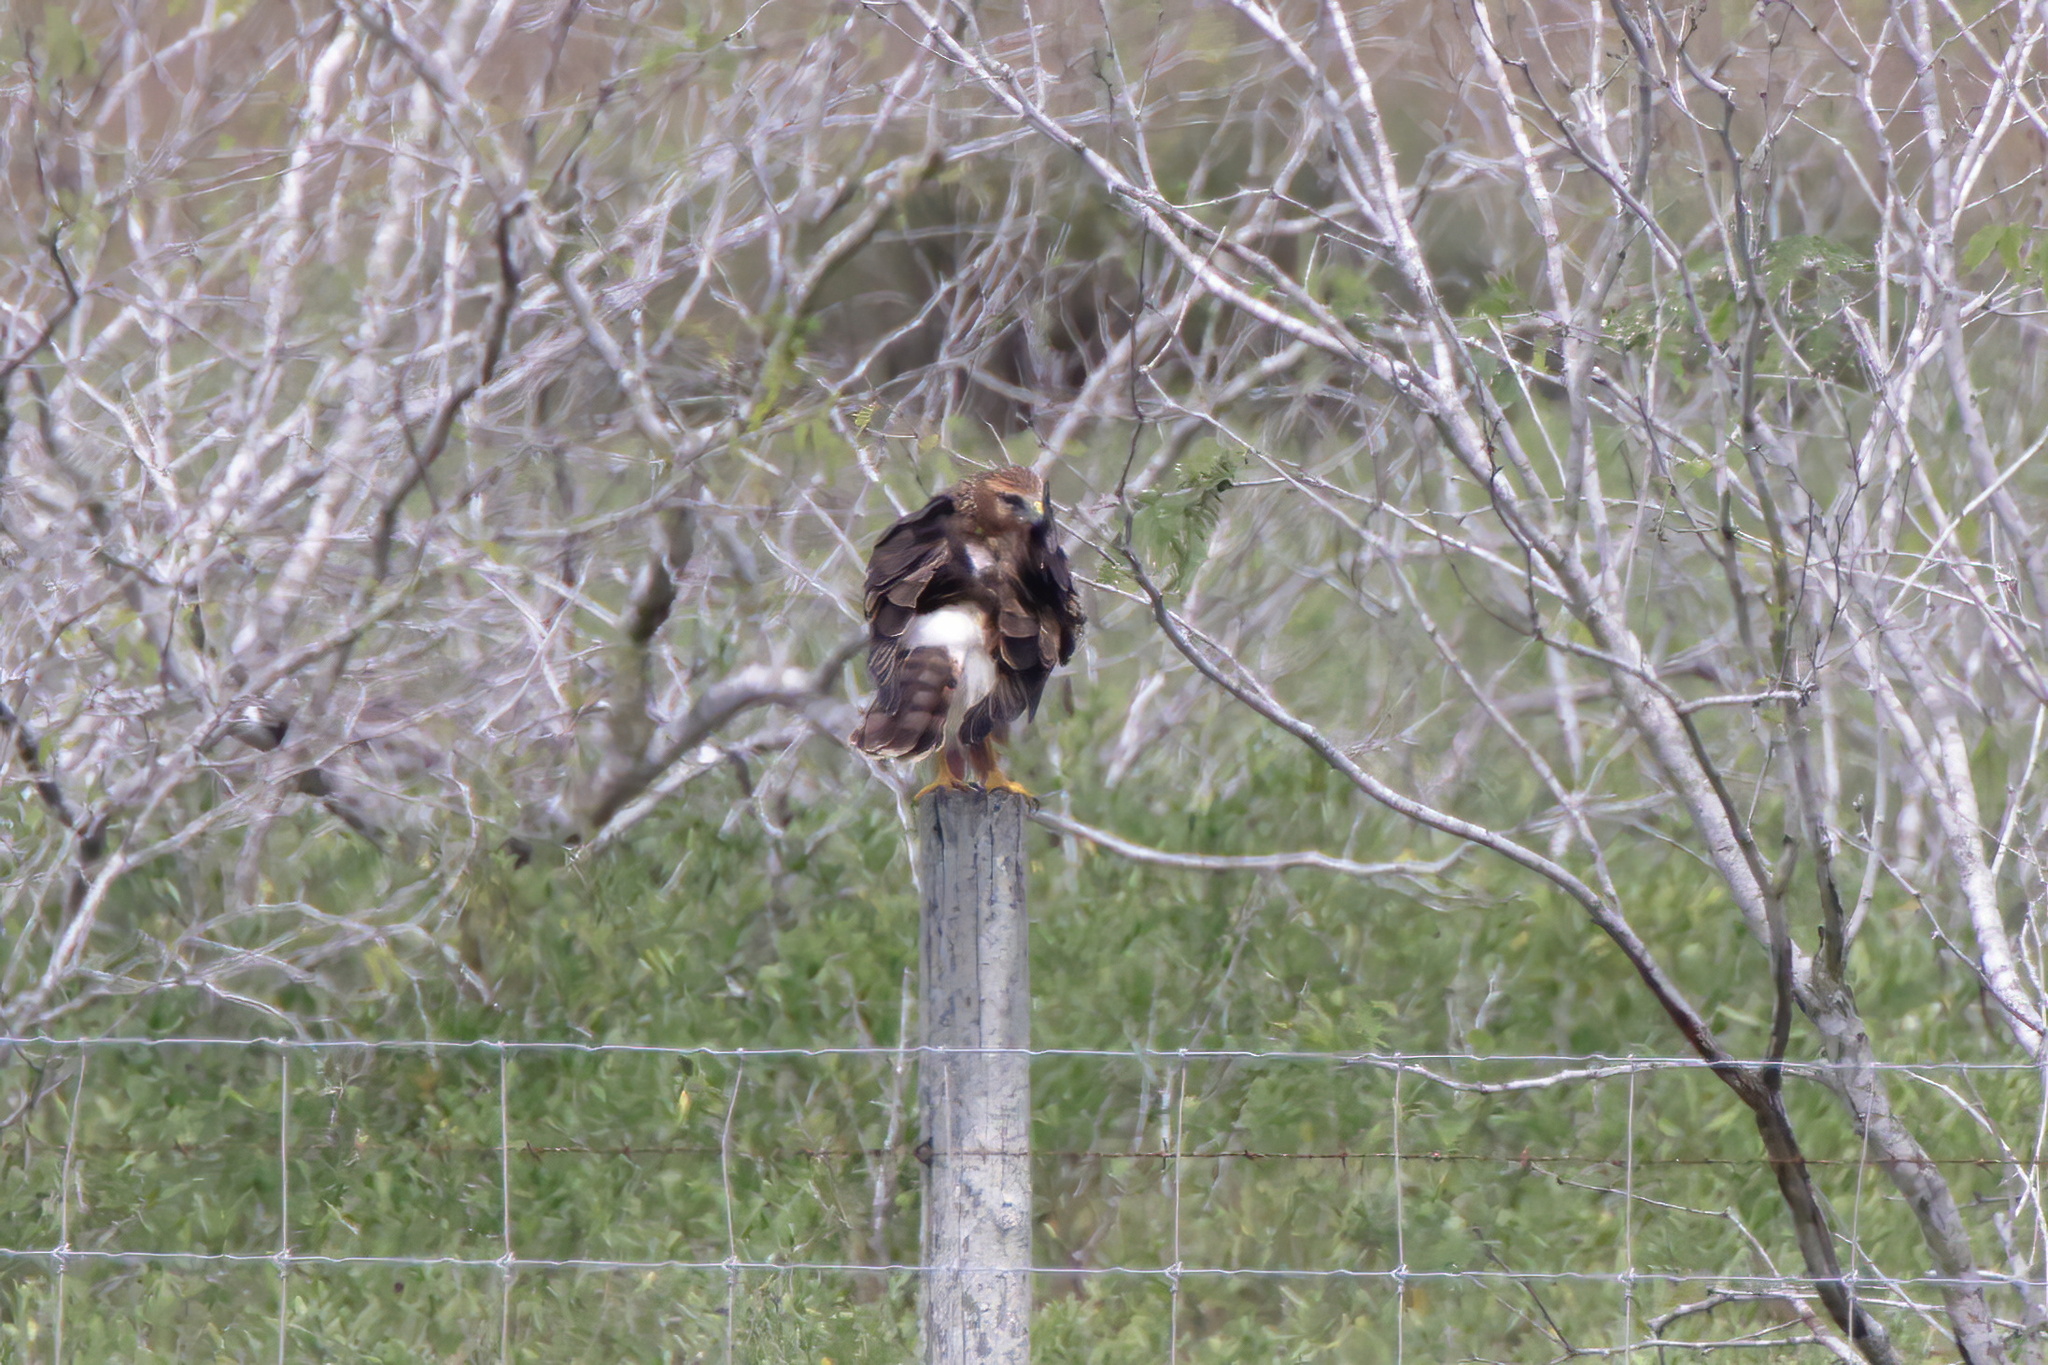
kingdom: Animalia
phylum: Chordata
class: Aves
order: Accipitriformes
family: Accipitridae
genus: Circus
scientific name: Circus cyaneus
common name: Hen harrier
